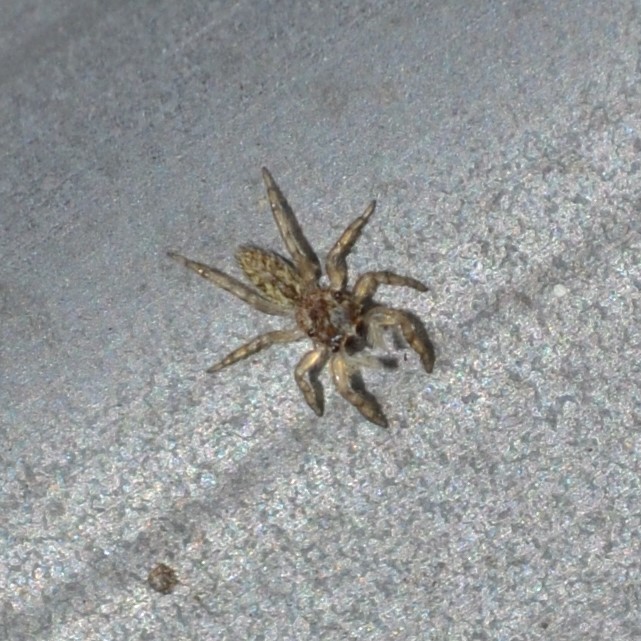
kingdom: Animalia
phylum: Arthropoda
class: Arachnida
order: Araneae
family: Salticidae
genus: Platycryptus
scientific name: Platycryptus undatus
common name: Tan jumping spider
